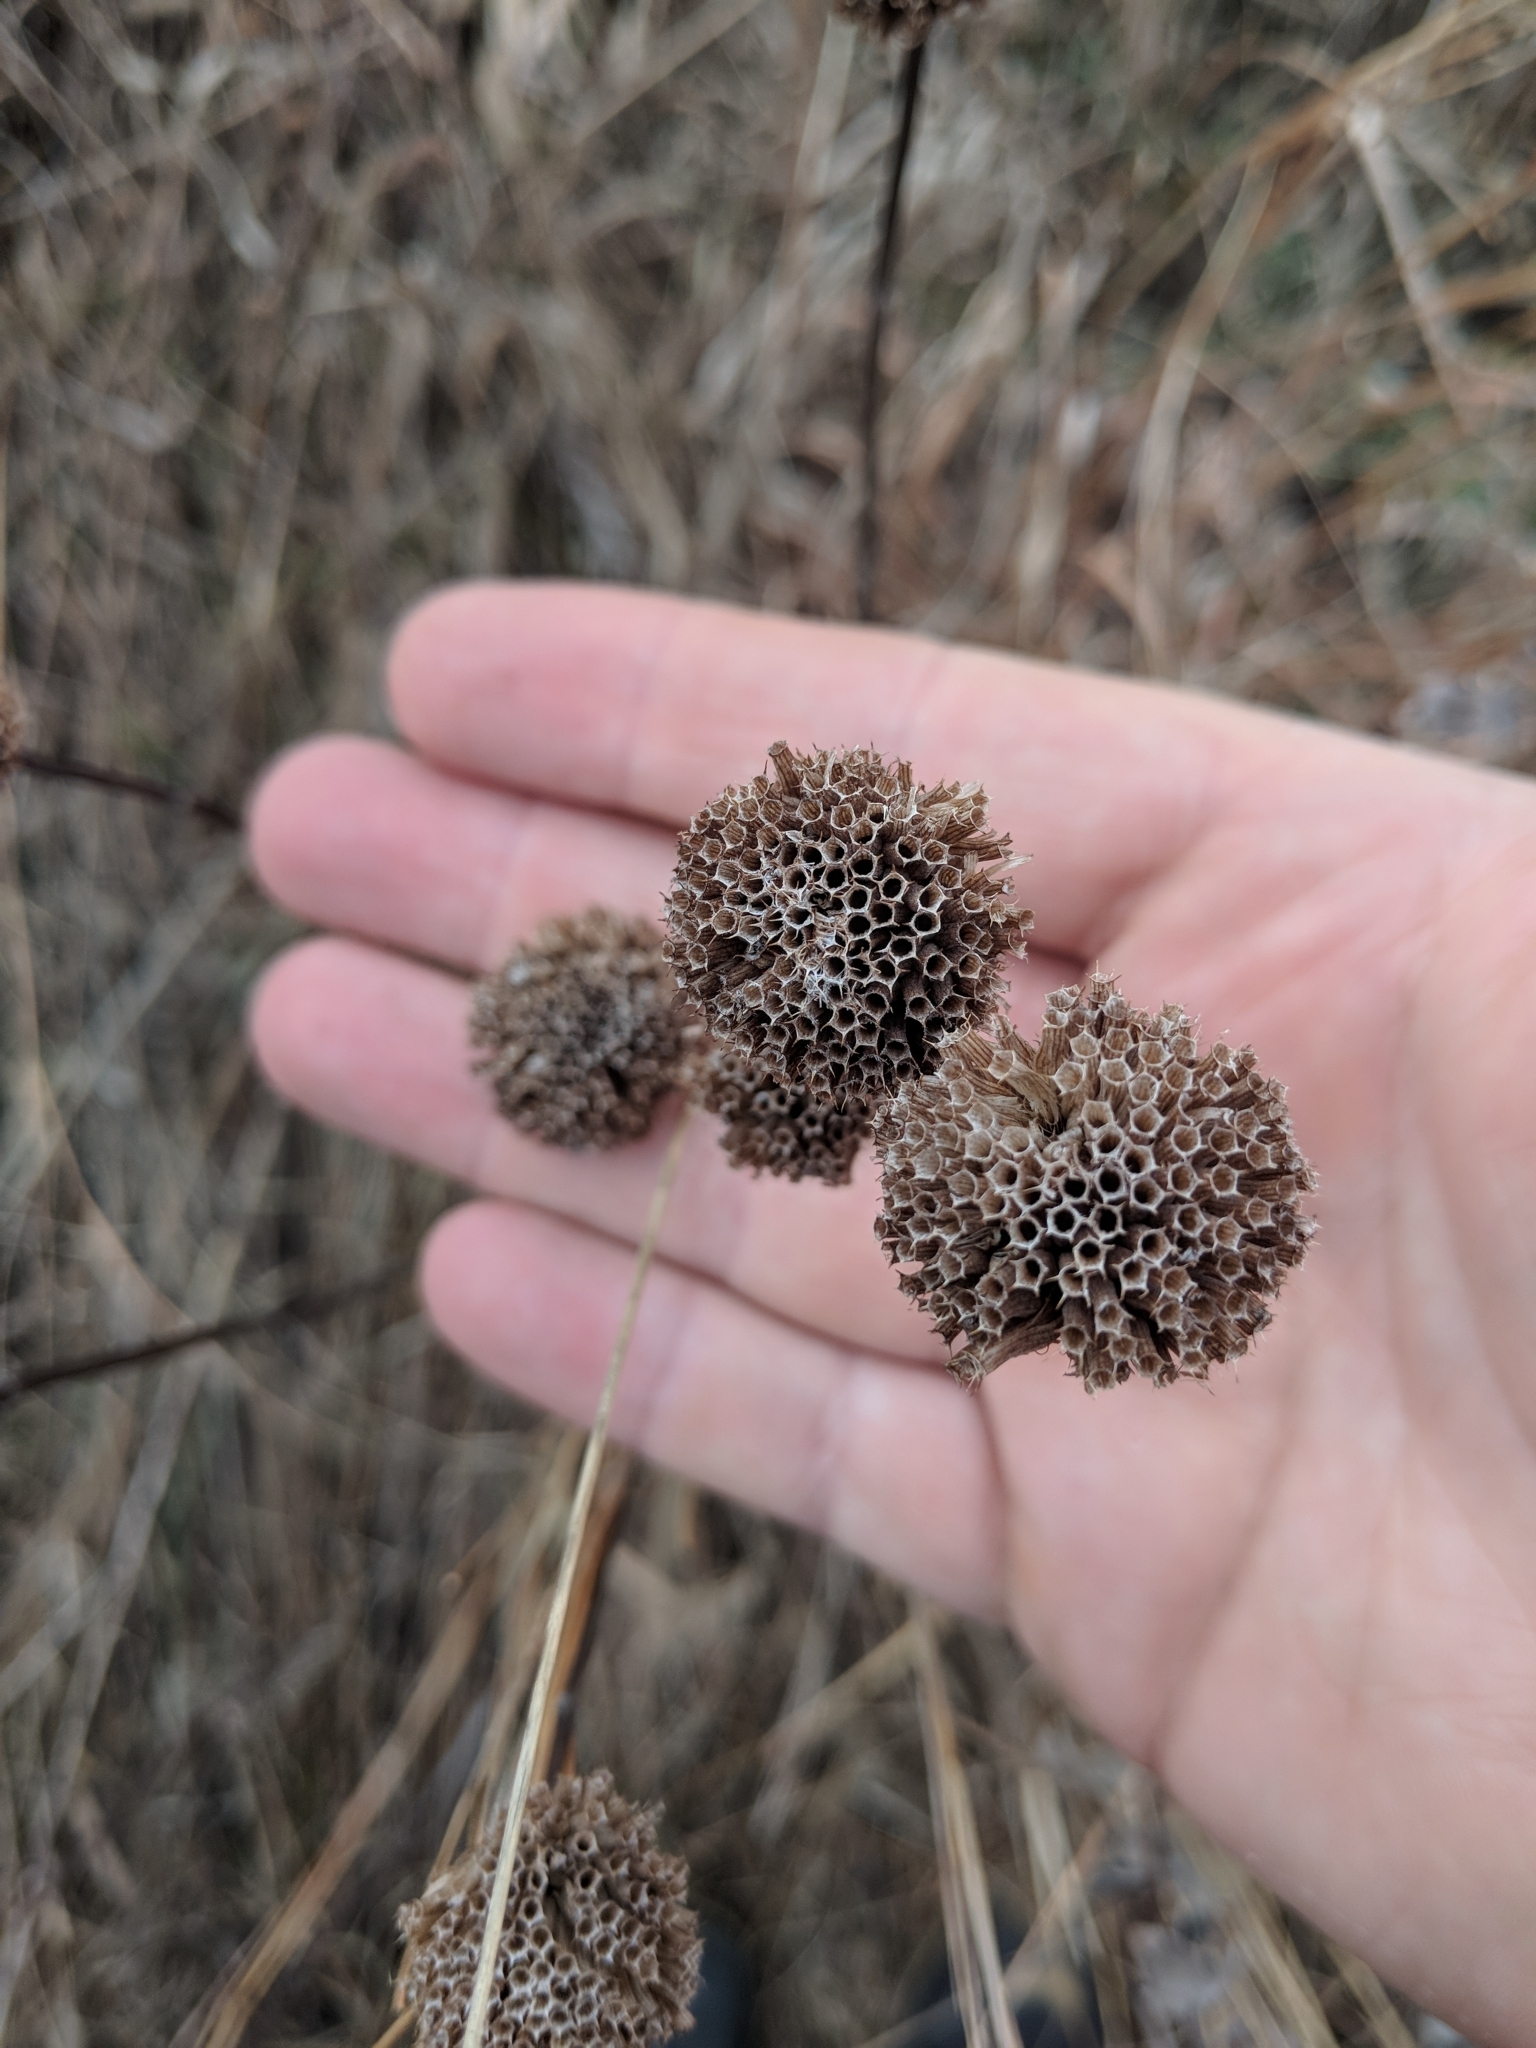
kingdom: Plantae
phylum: Tracheophyta
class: Magnoliopsida
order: Lamiales
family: Lamiaceae
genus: Monarda
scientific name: Monarda fistulosa
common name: Purple beebalm
